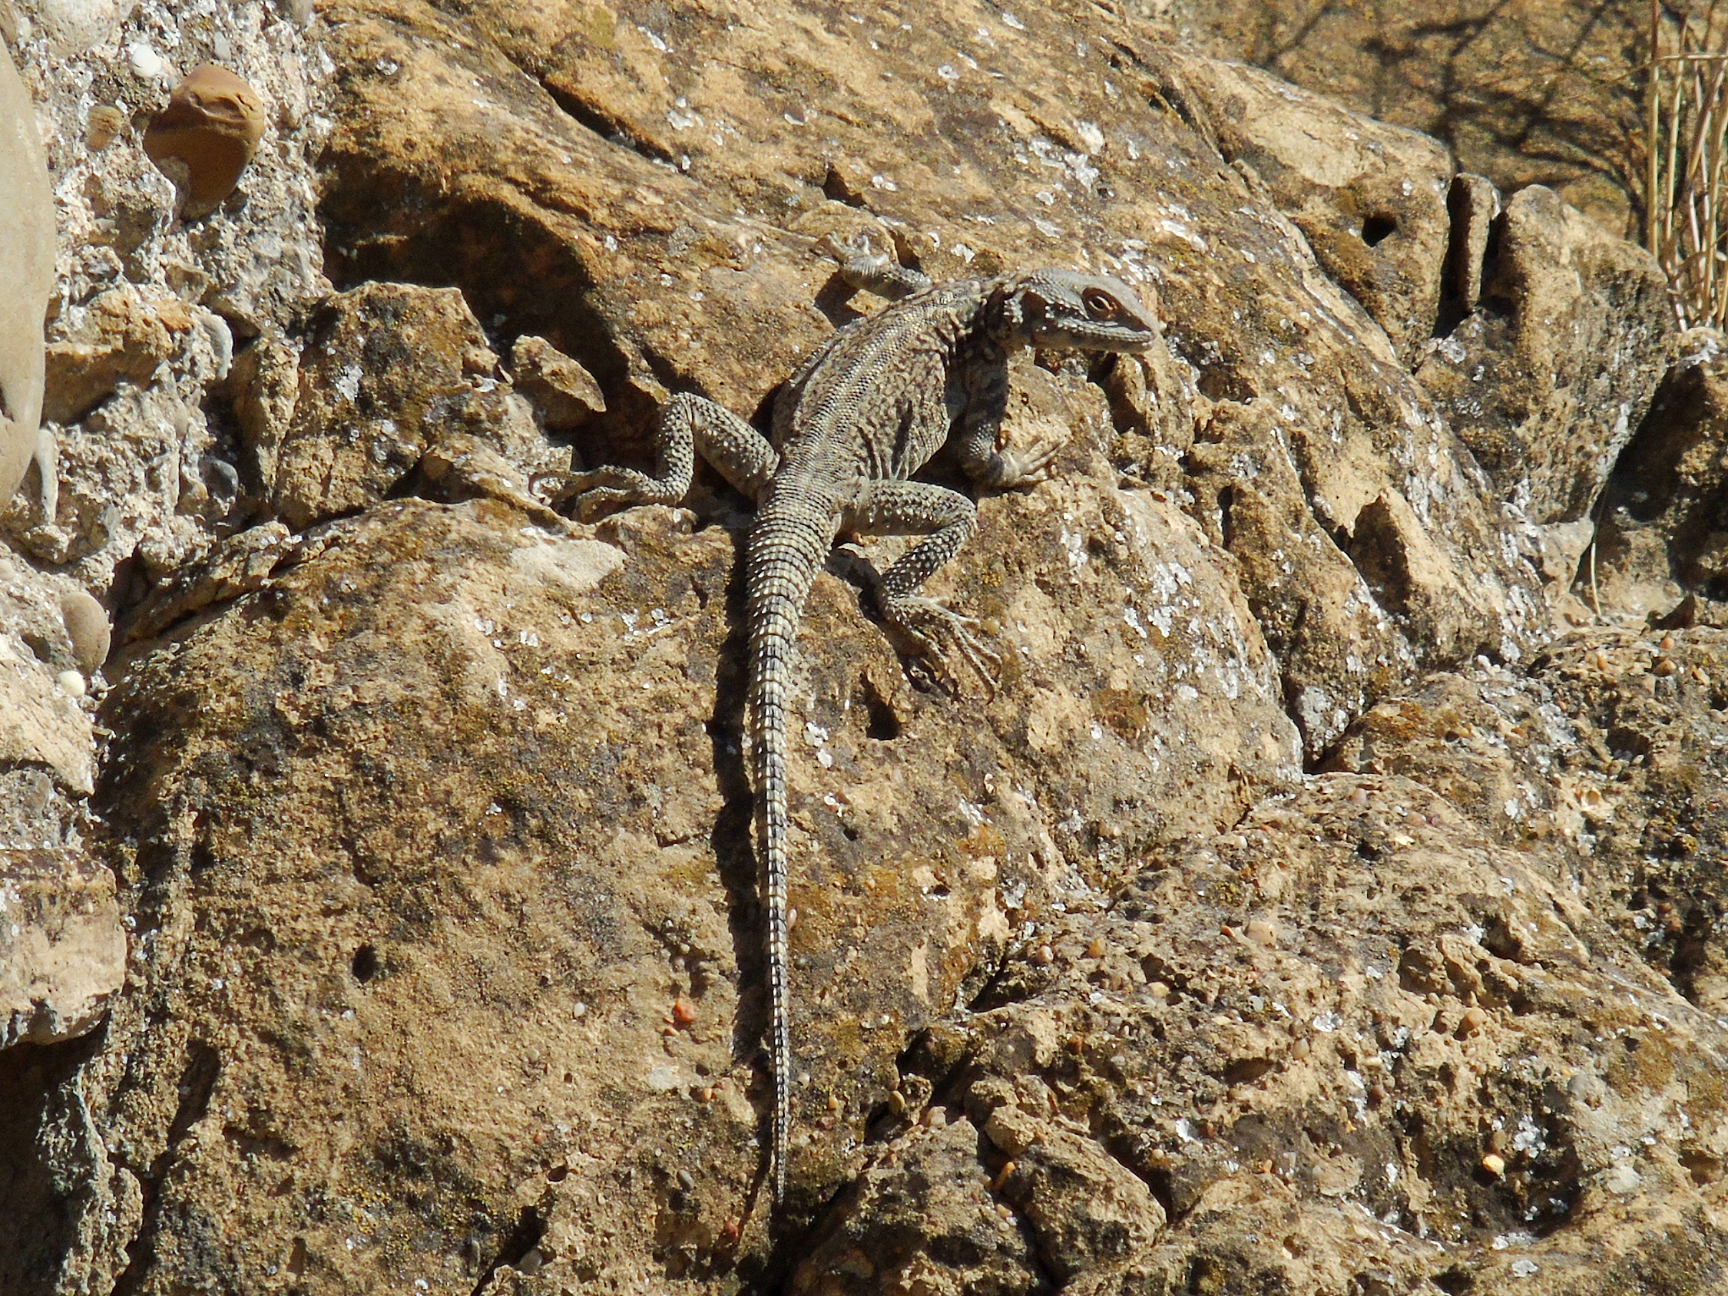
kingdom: Animalia
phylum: Chordata
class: Squamata
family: Agamidae
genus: Paralaudakia
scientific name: Paralaudakia caucasia
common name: Caucasian agama
